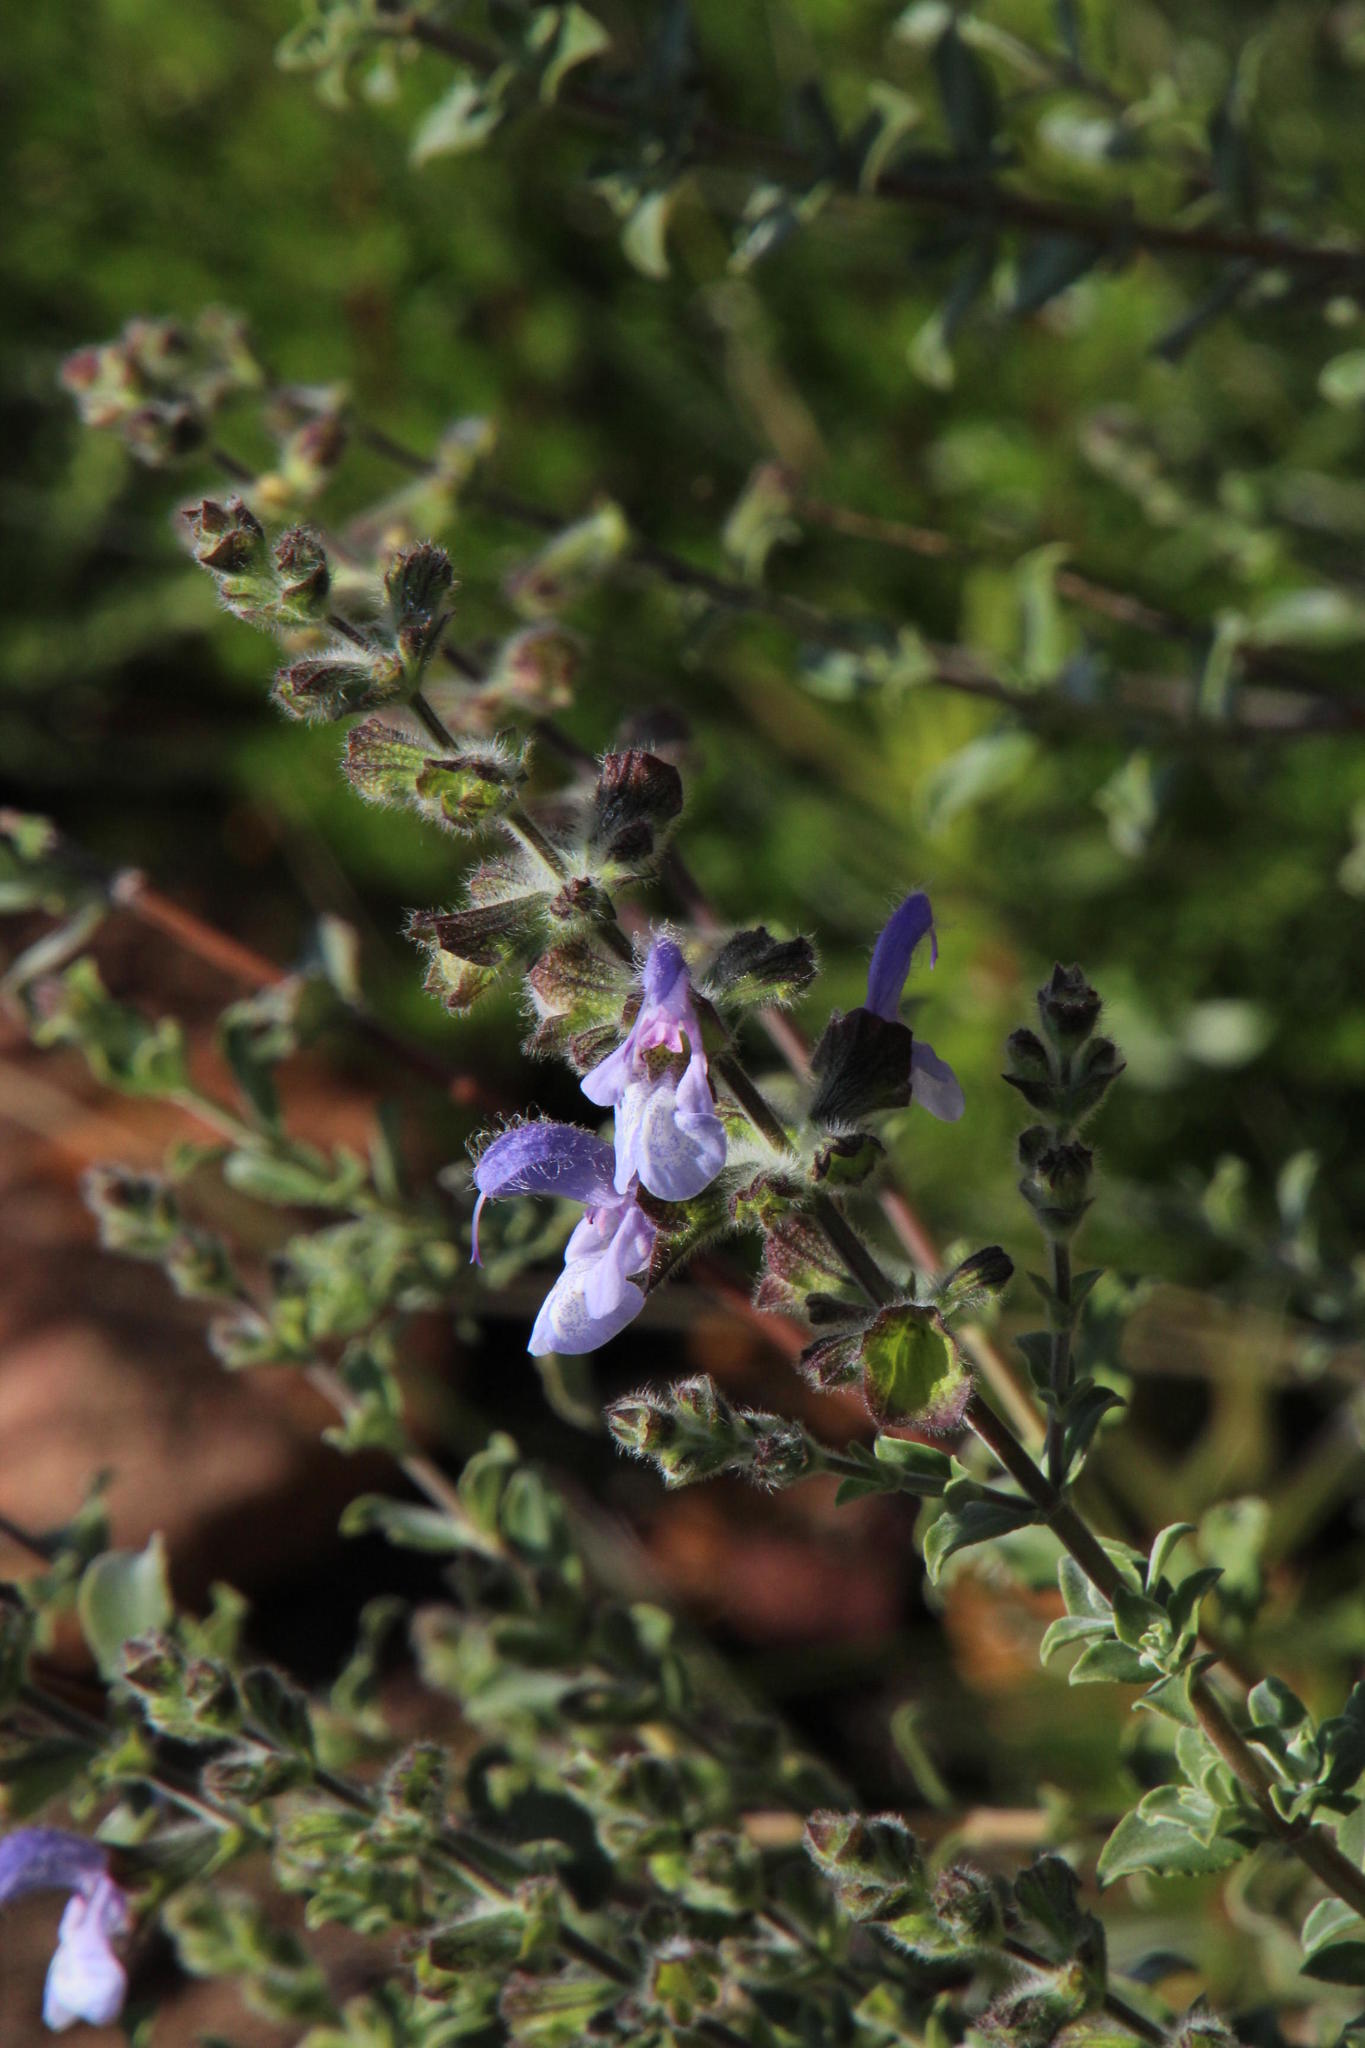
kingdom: Plantae
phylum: Tracheophyta
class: Magnoliopsida
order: Lamiales
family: Lamiaceae
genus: Salvia
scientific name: Salvia africana
